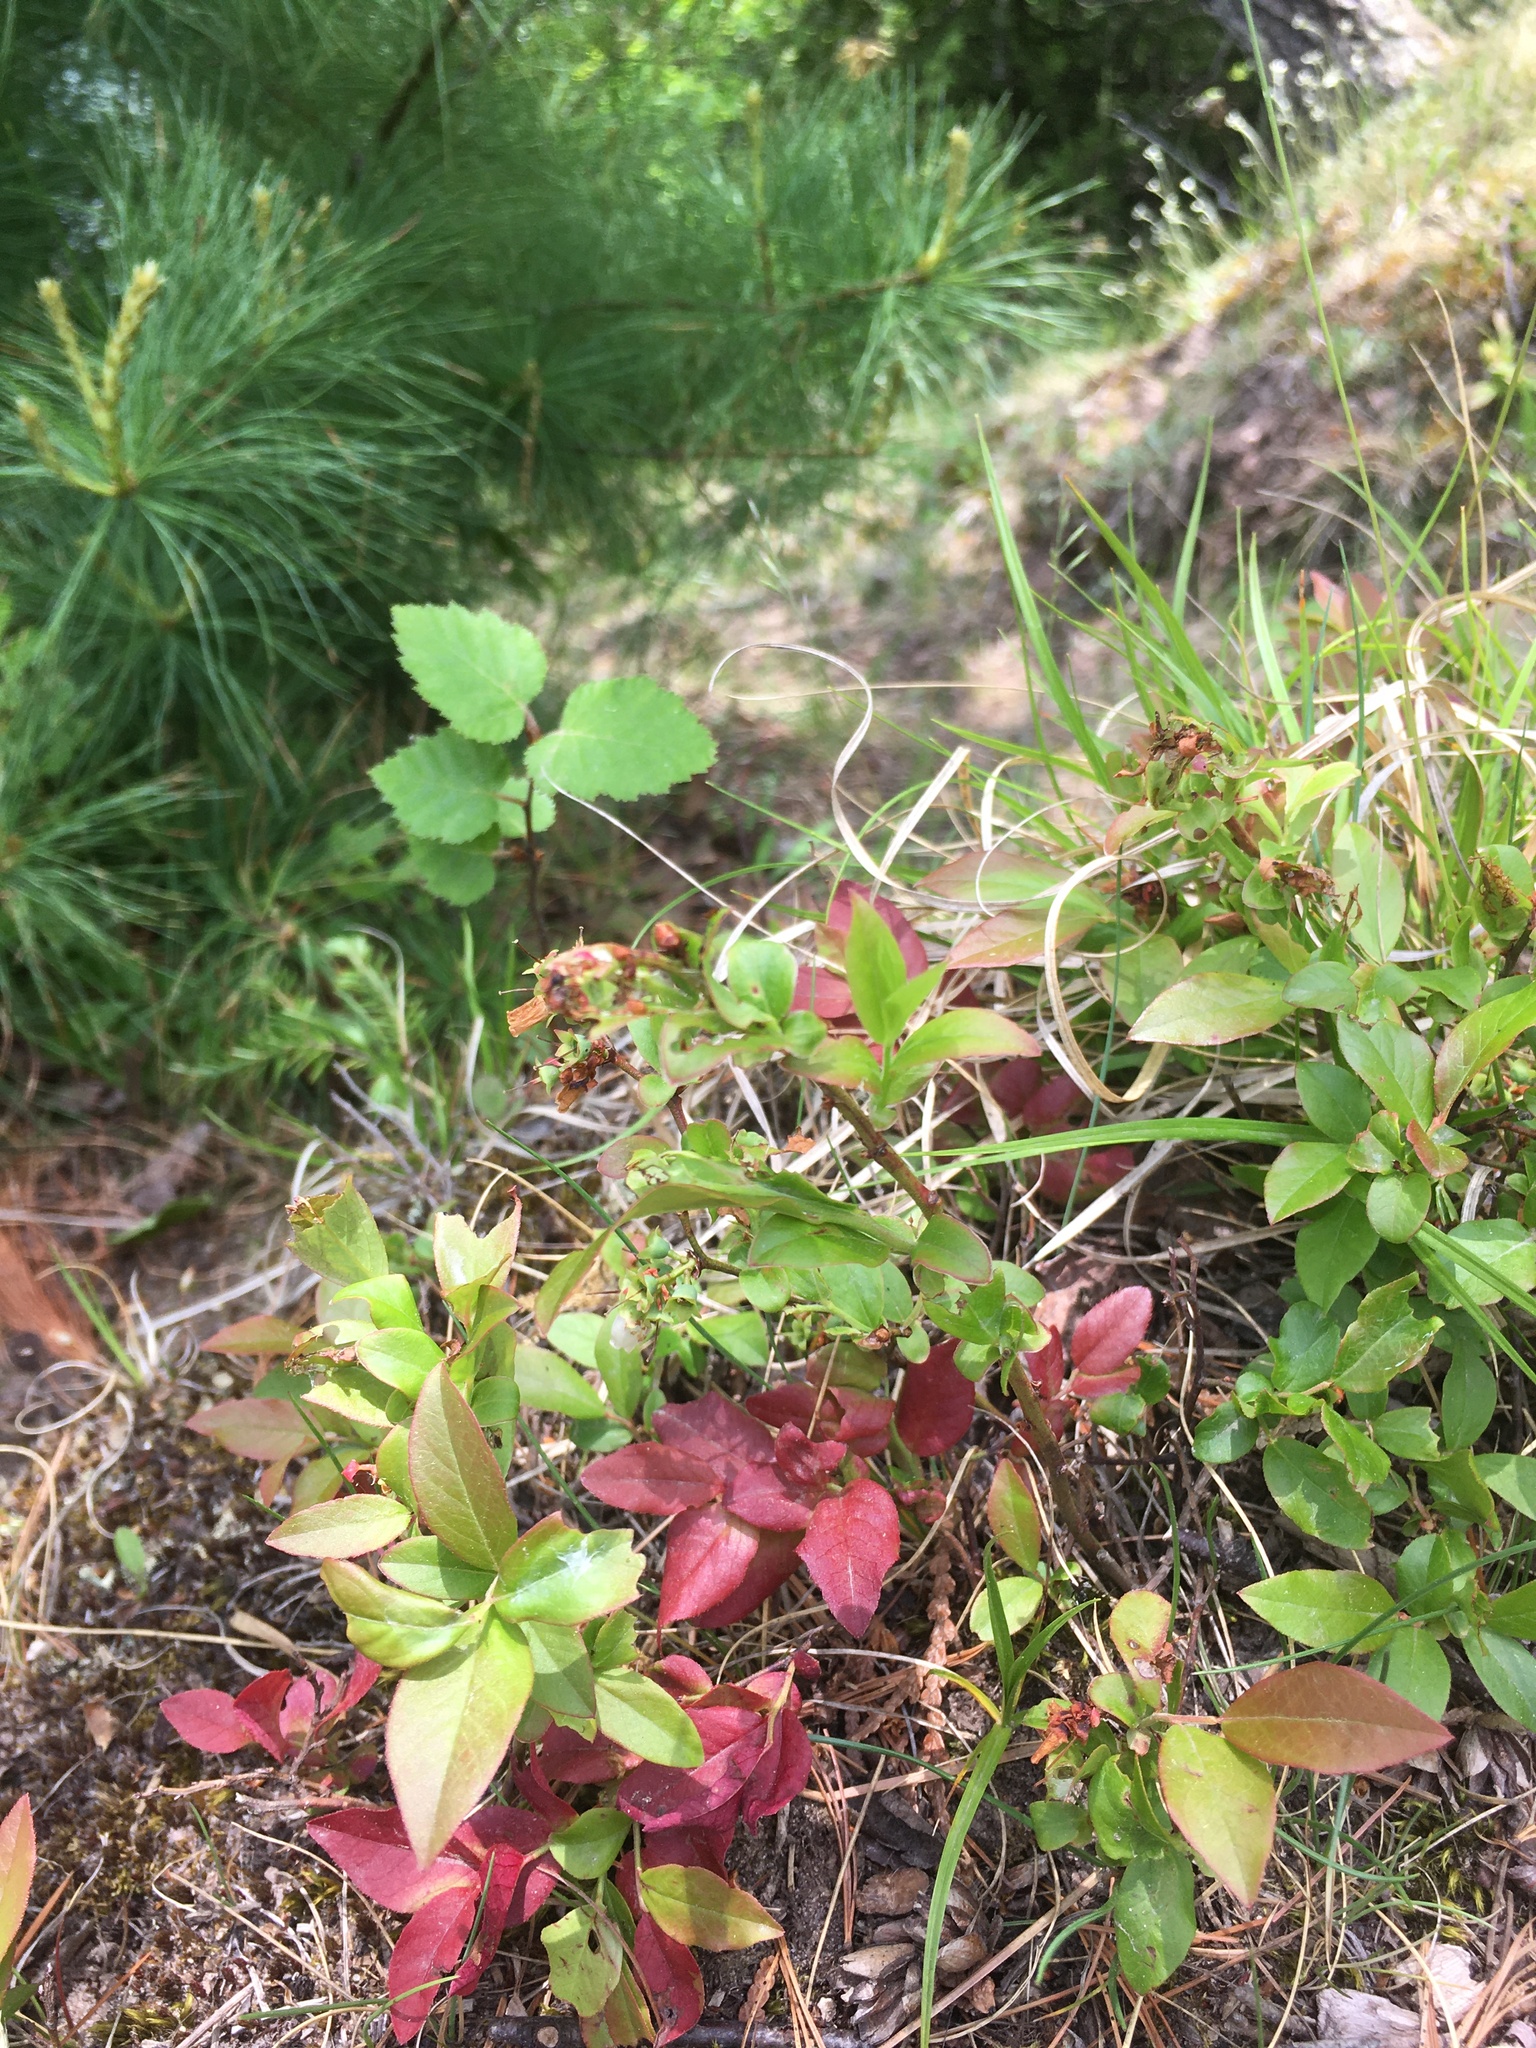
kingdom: Plantae
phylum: Tracheophyta
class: Magnoliopsida
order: Ericales
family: Ericaceae
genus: Vaccinium
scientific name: Vaccinium angustifolium
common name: Early lowbush blueberry
